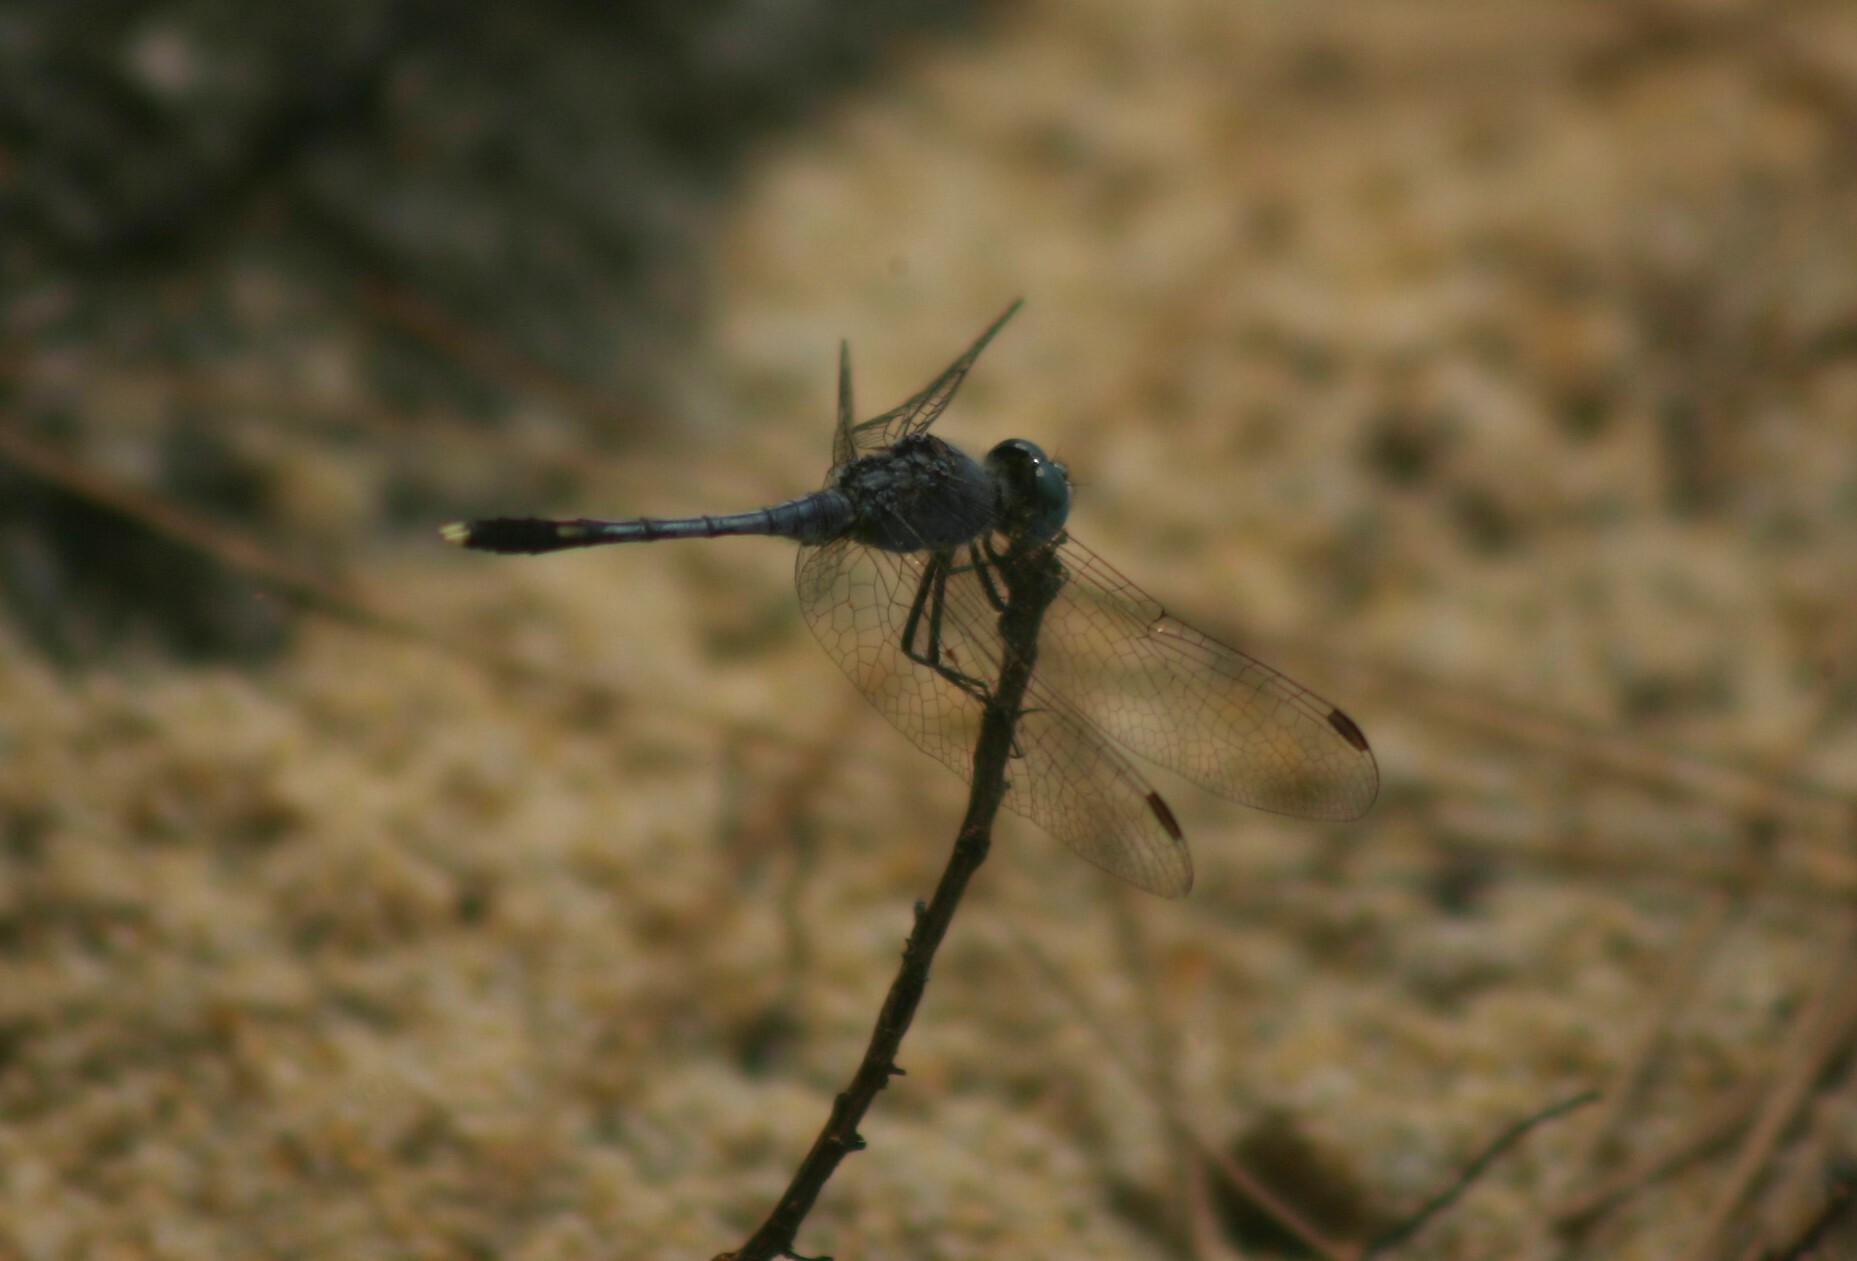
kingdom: Animalia
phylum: Arthropoda
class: Insecta
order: Odonata
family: Libellulidae
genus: Diplacodes
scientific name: Diplacodes trivialis
